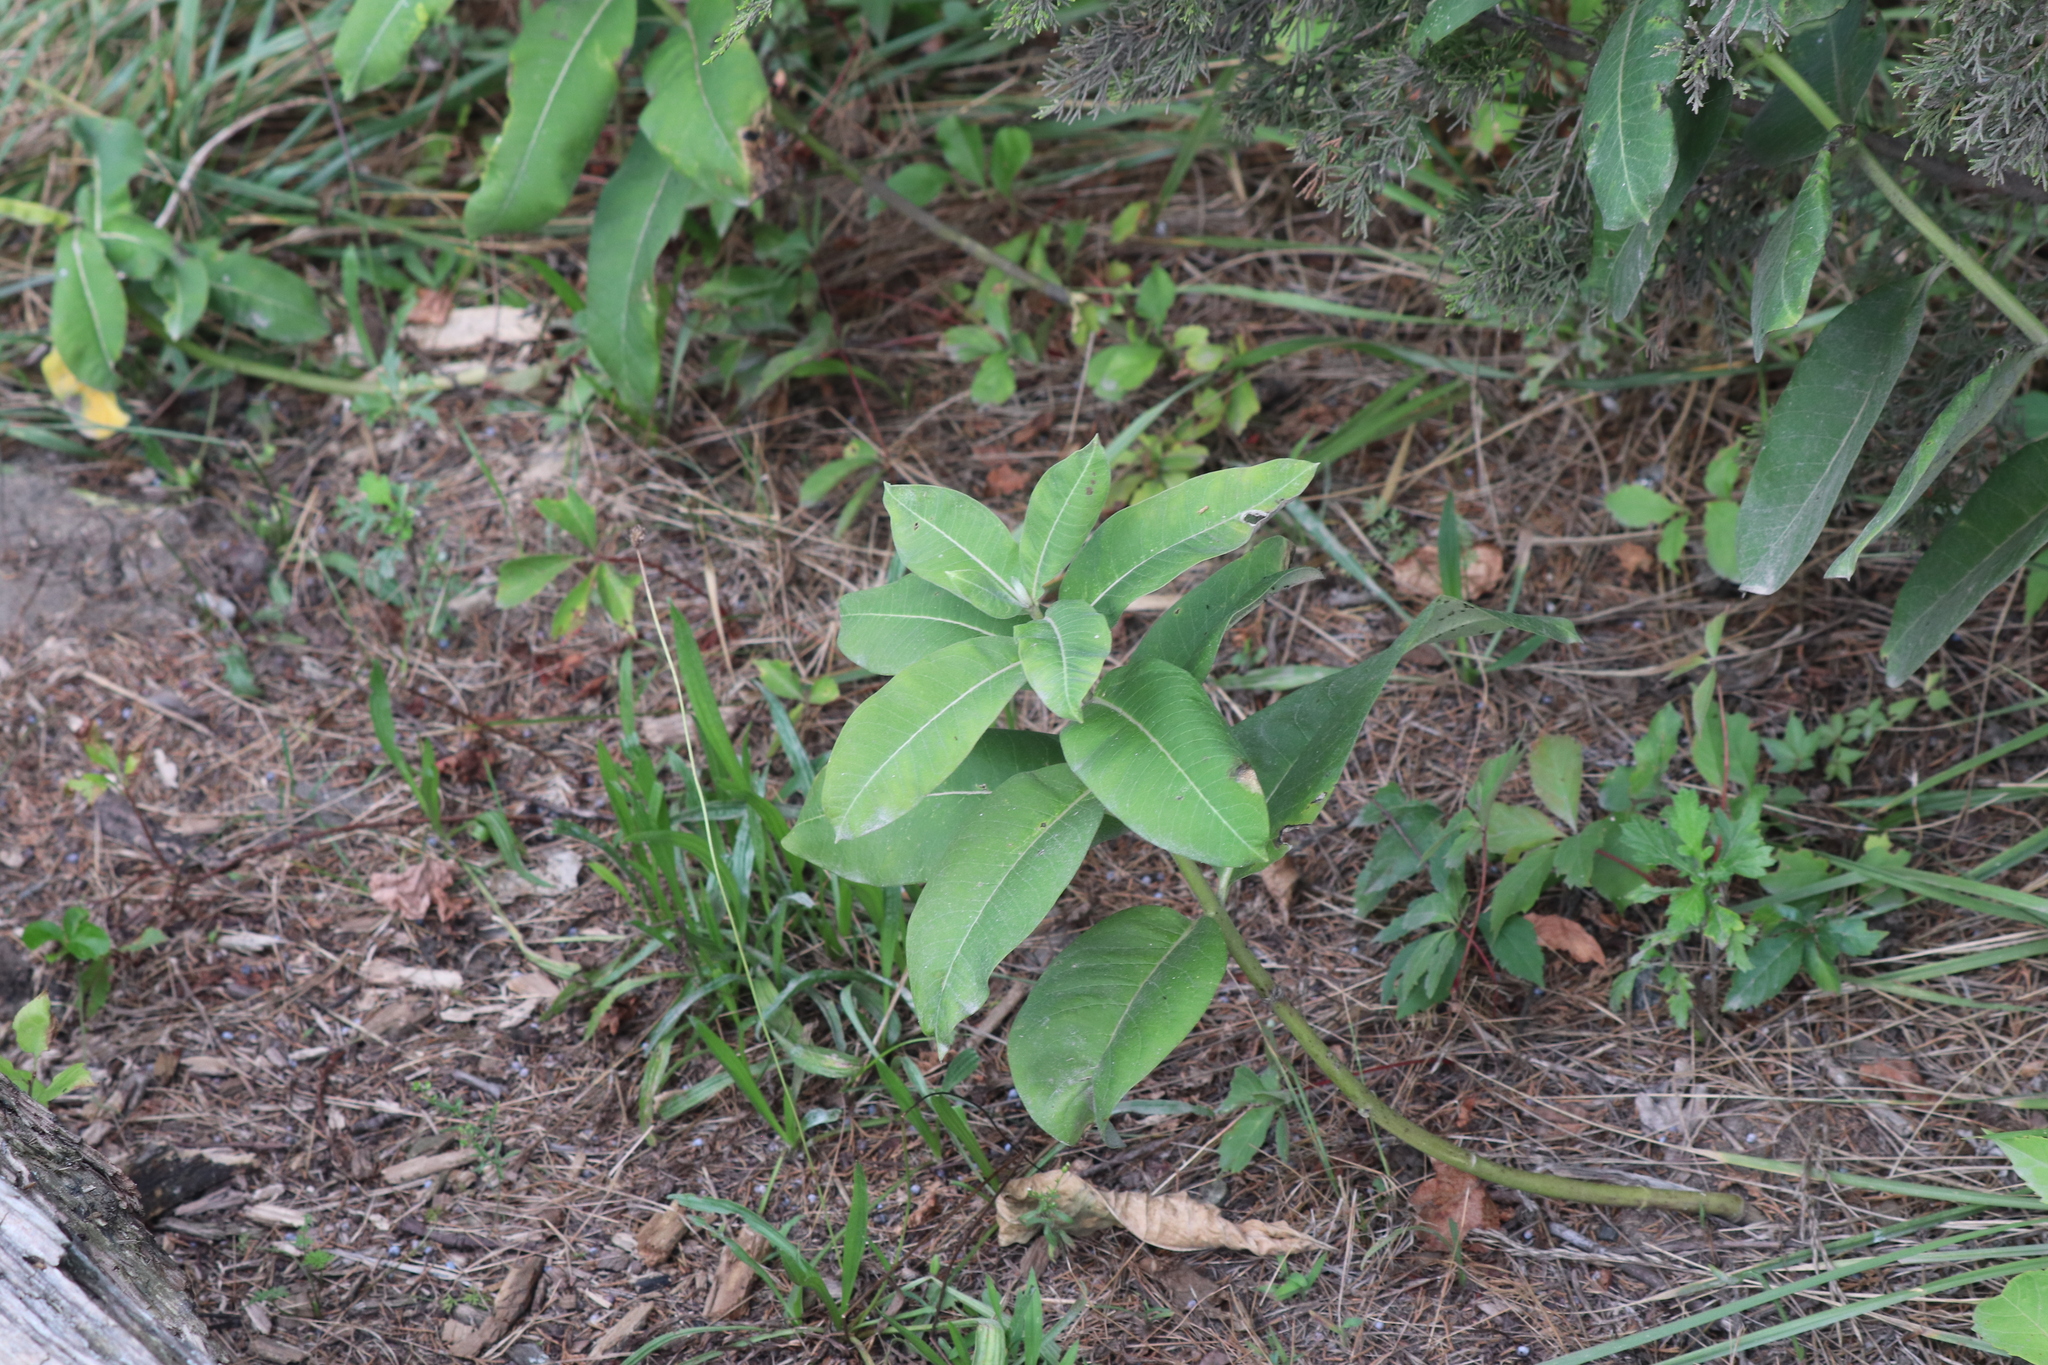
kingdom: Plantae
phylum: Tracheophyta
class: Magnoliopsida
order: Gentianales
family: Apocynaceae
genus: Asclepias
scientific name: Asclepias syriaca
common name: Common milkweed
